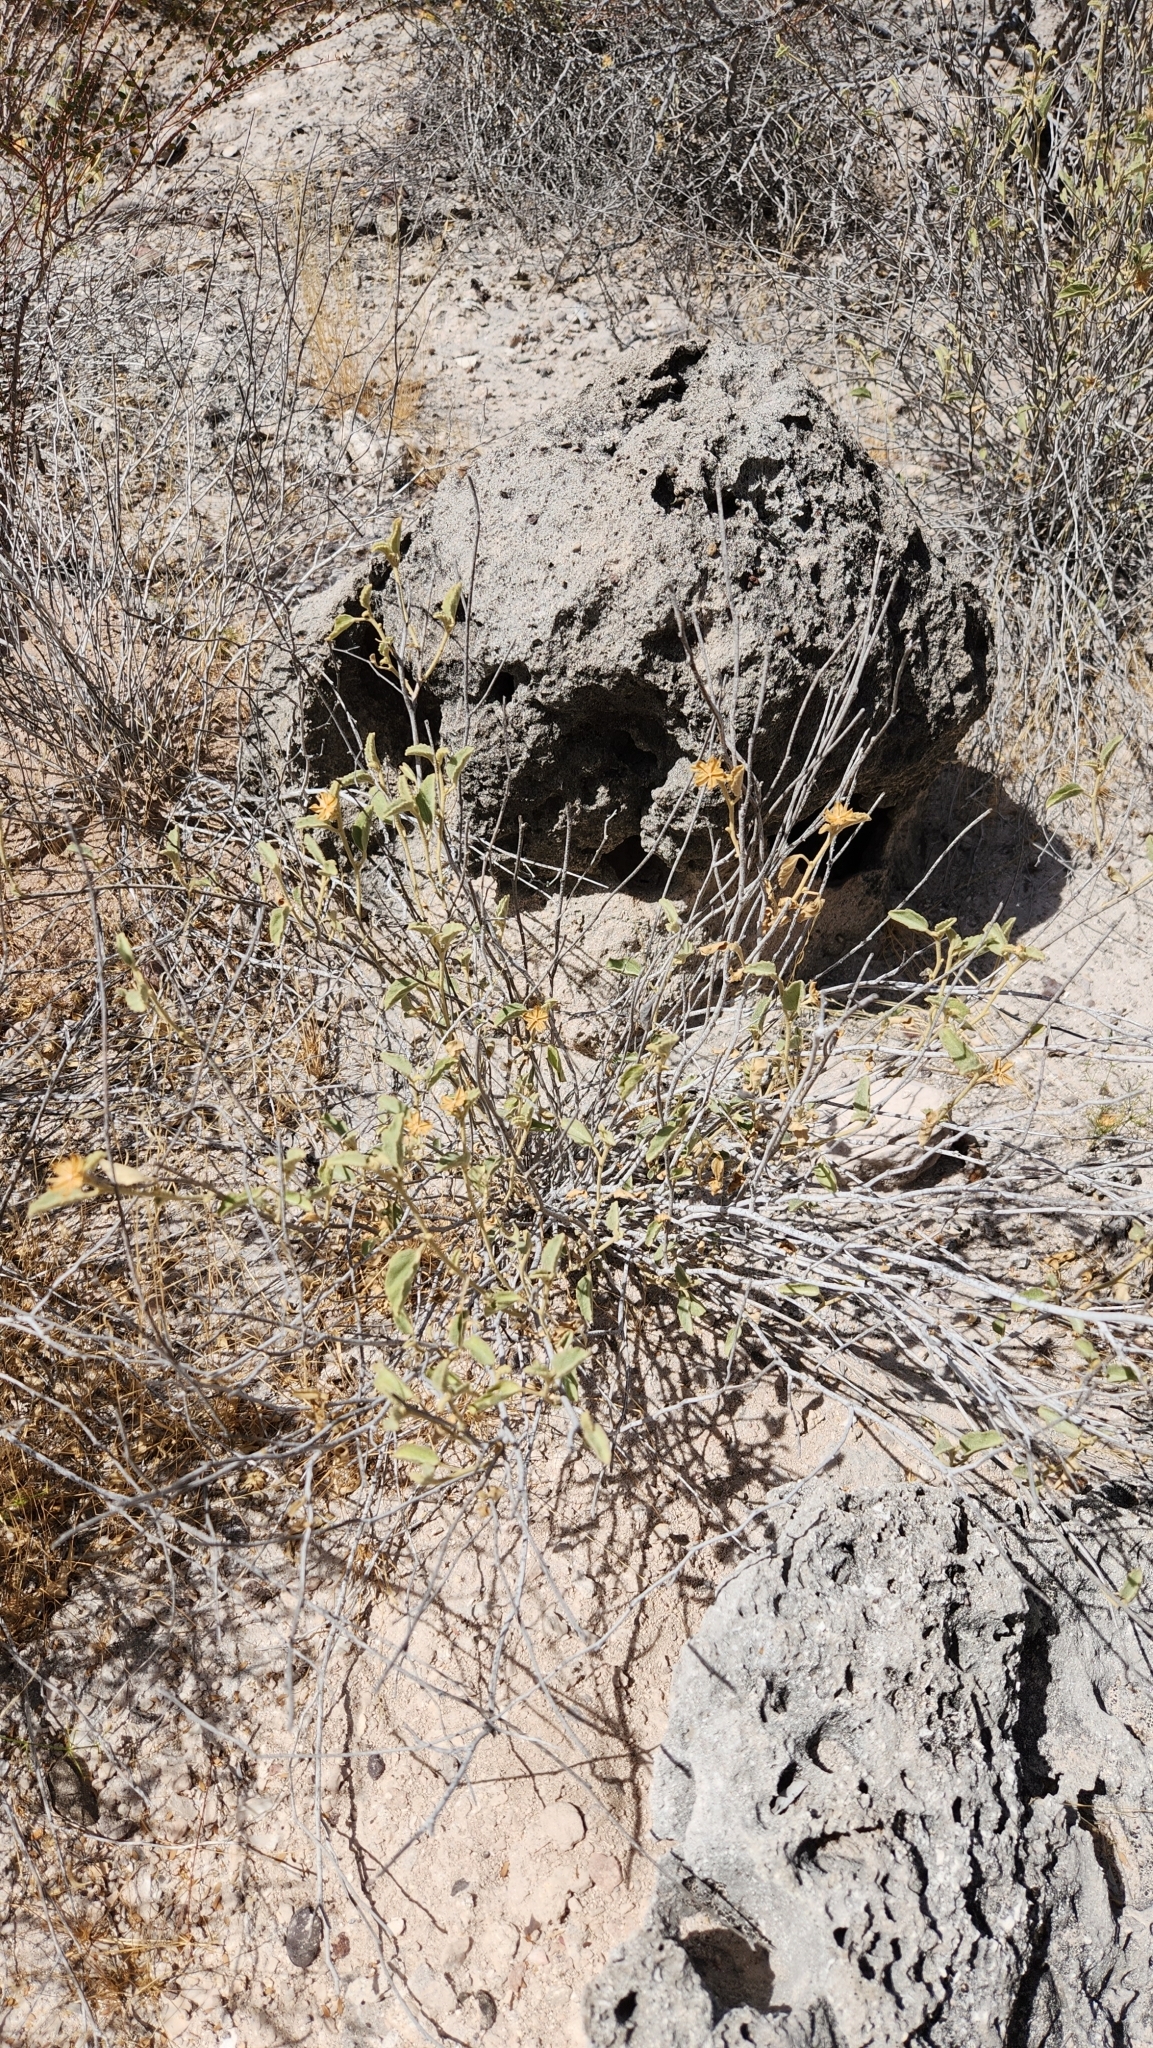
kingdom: Plantae
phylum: Tracheophyta
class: Magnoliopsida
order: Malvales
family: Malvaceae
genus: Hibiscus
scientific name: Hibiscus denudatus
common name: Paleface
